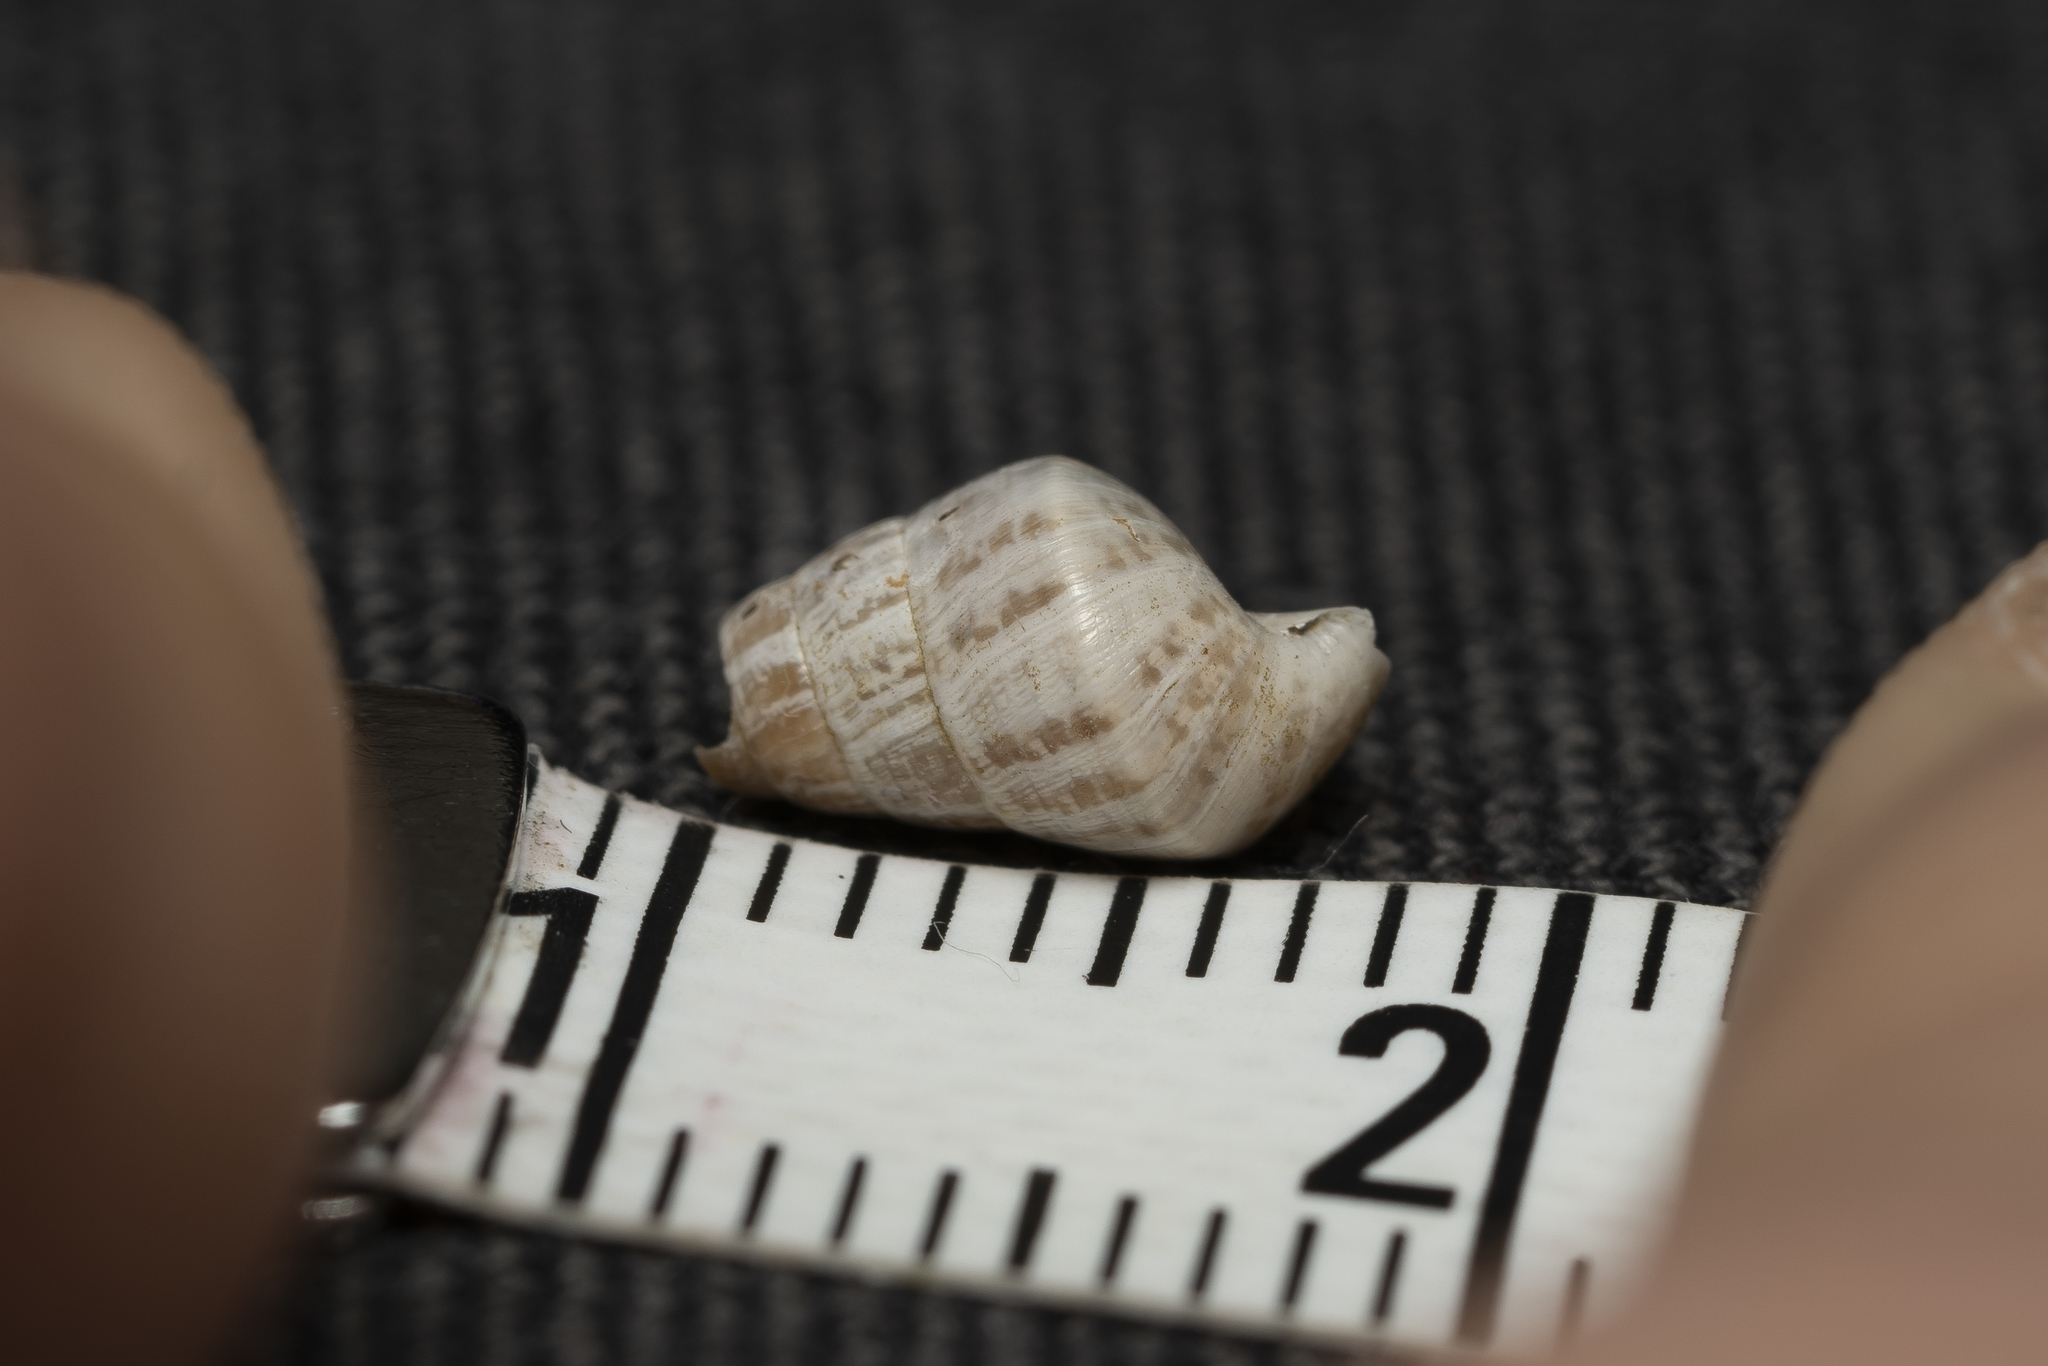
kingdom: Animalia
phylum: Mollusca
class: Gastropoda
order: Stylommatophora
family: Enidae
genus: Zebrina
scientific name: Zebrina fasciolata
